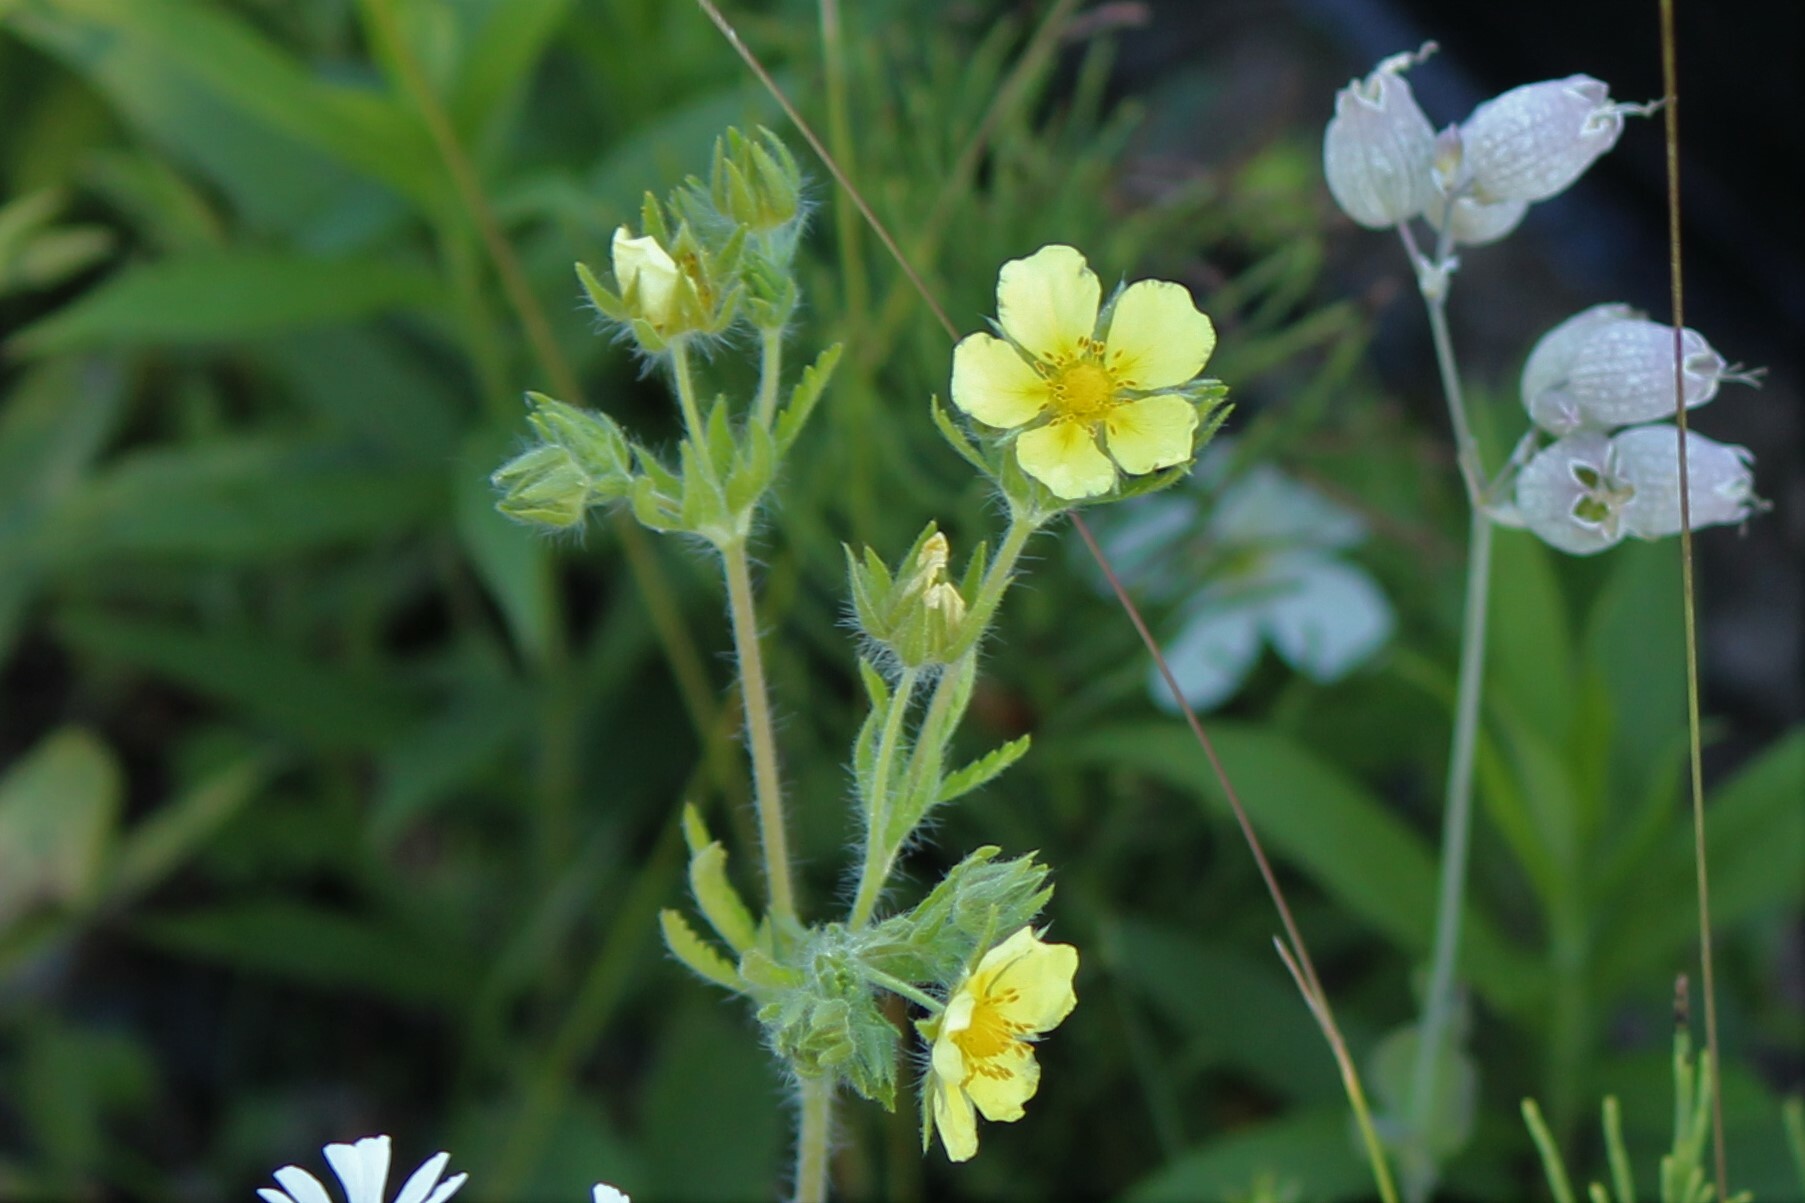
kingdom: Plantae
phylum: Tracheophyta
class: Magnoliopsida
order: Rosales
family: Rosaceae
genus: Potentilla
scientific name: Potentilla recta
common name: Sulphur cinquefoil
